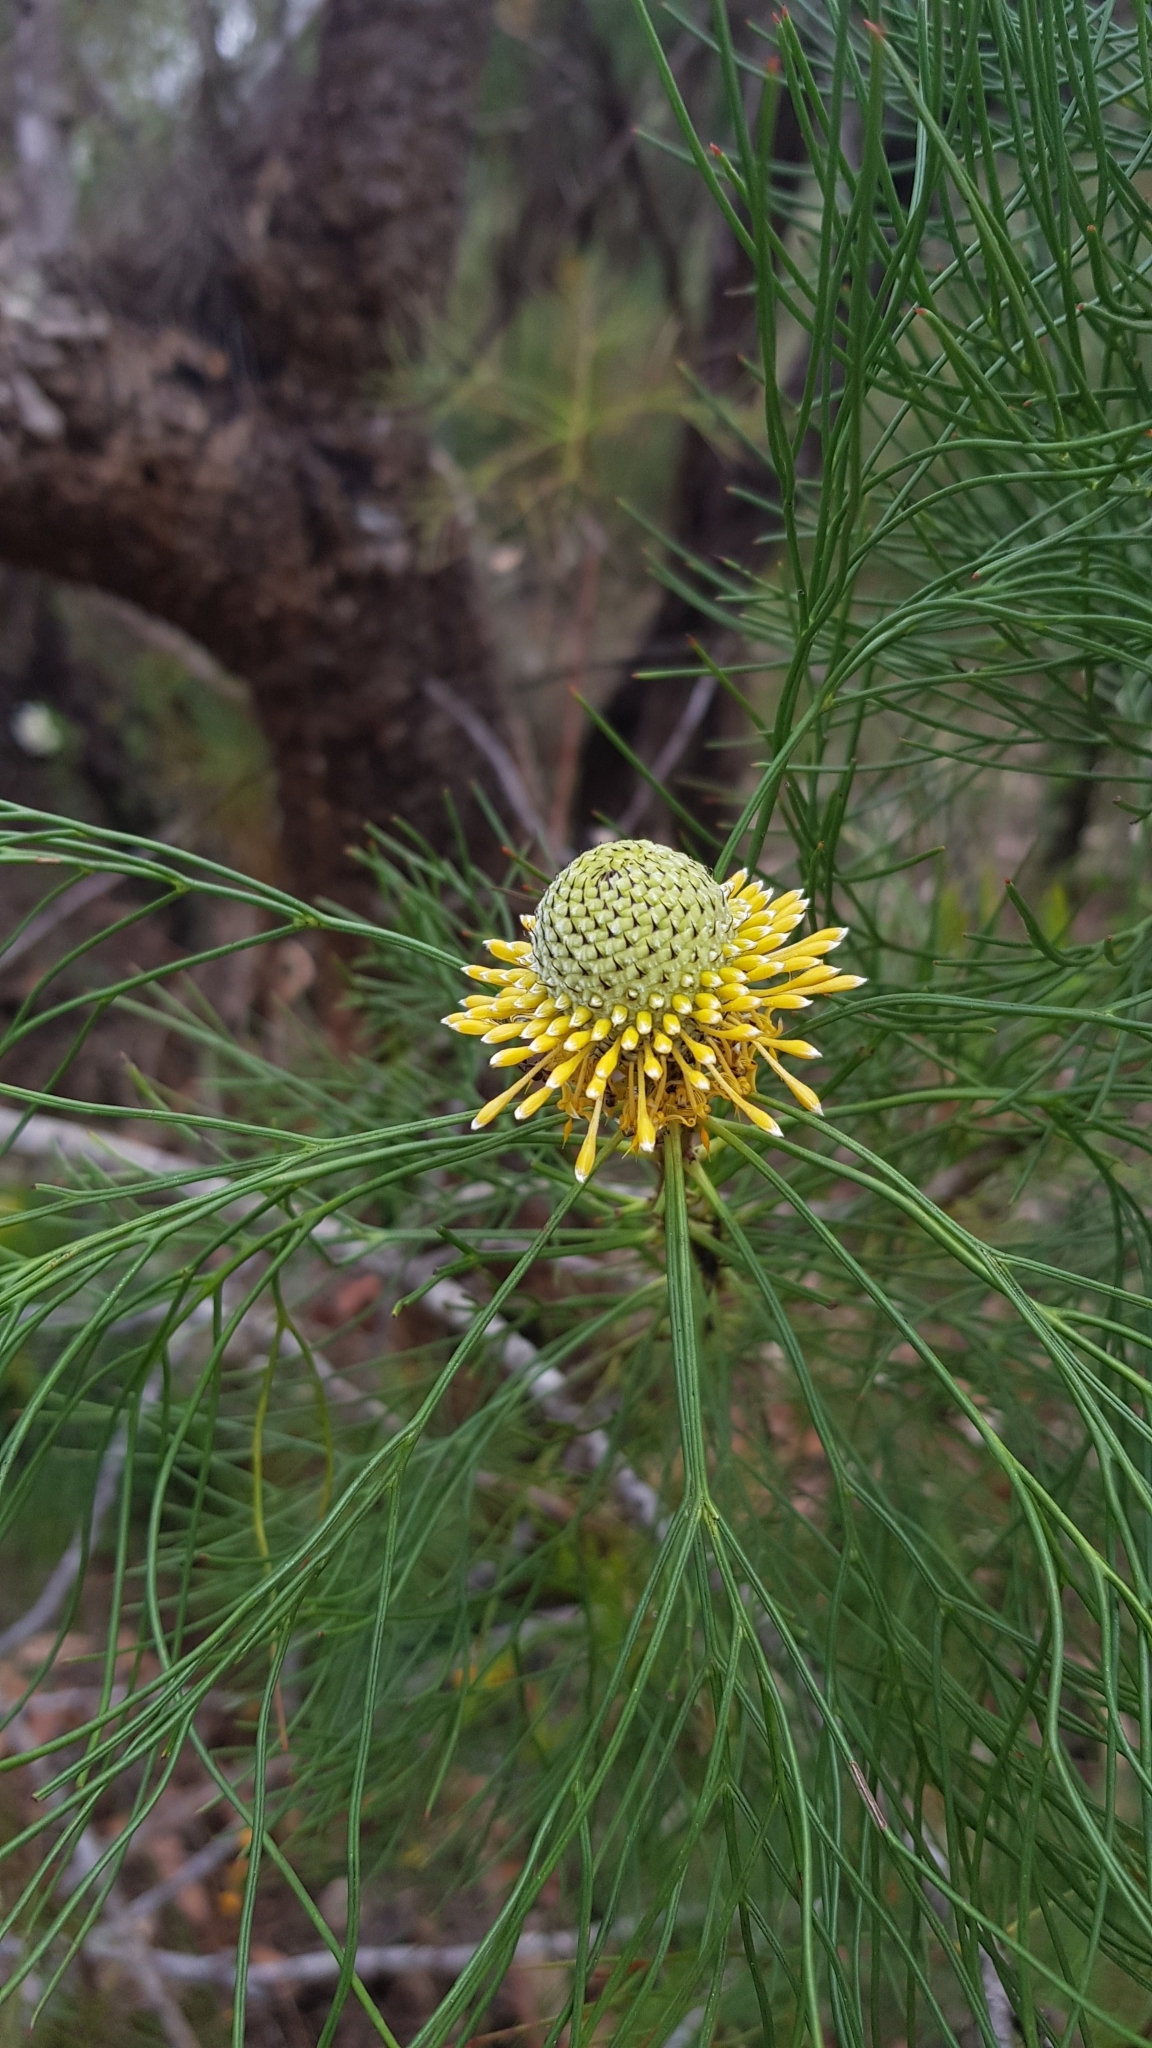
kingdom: Plantae
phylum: Tracheophyta
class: Magnoliopsida
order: Proteales
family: Proteaceae
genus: Isopogon
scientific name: Isopogon anethifolius
